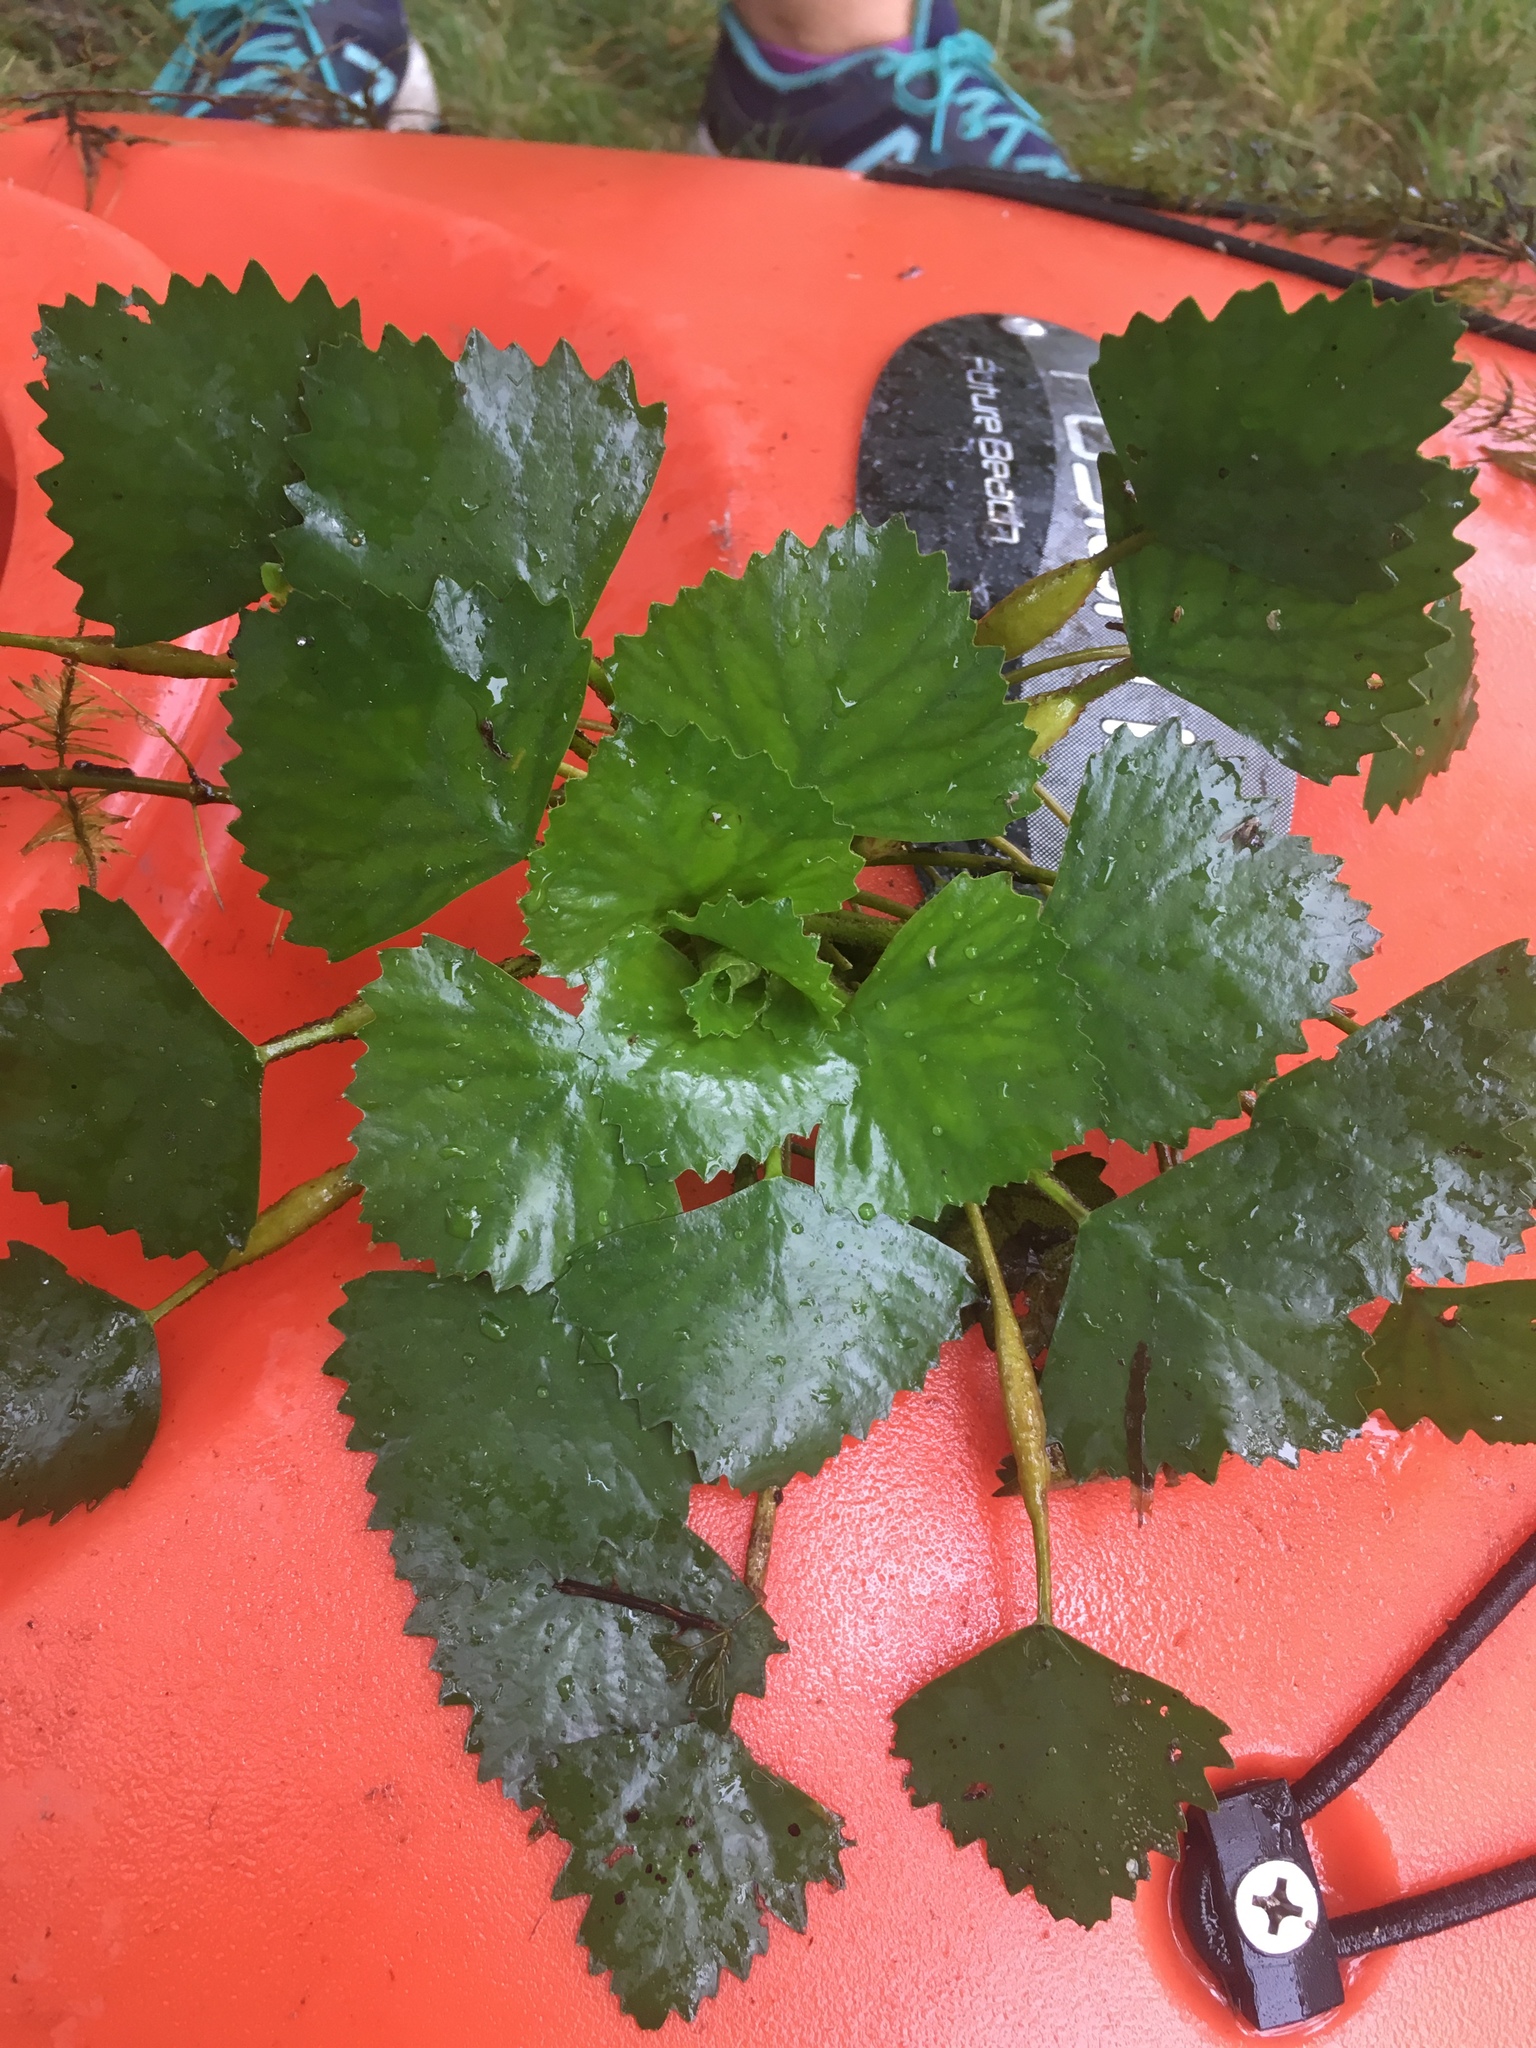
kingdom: Plantae
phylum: Tracheophyta
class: Magnoliopsida
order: Myrtales
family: Lythraceae
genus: Trapa
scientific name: Trapa natans
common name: Water chestnut
